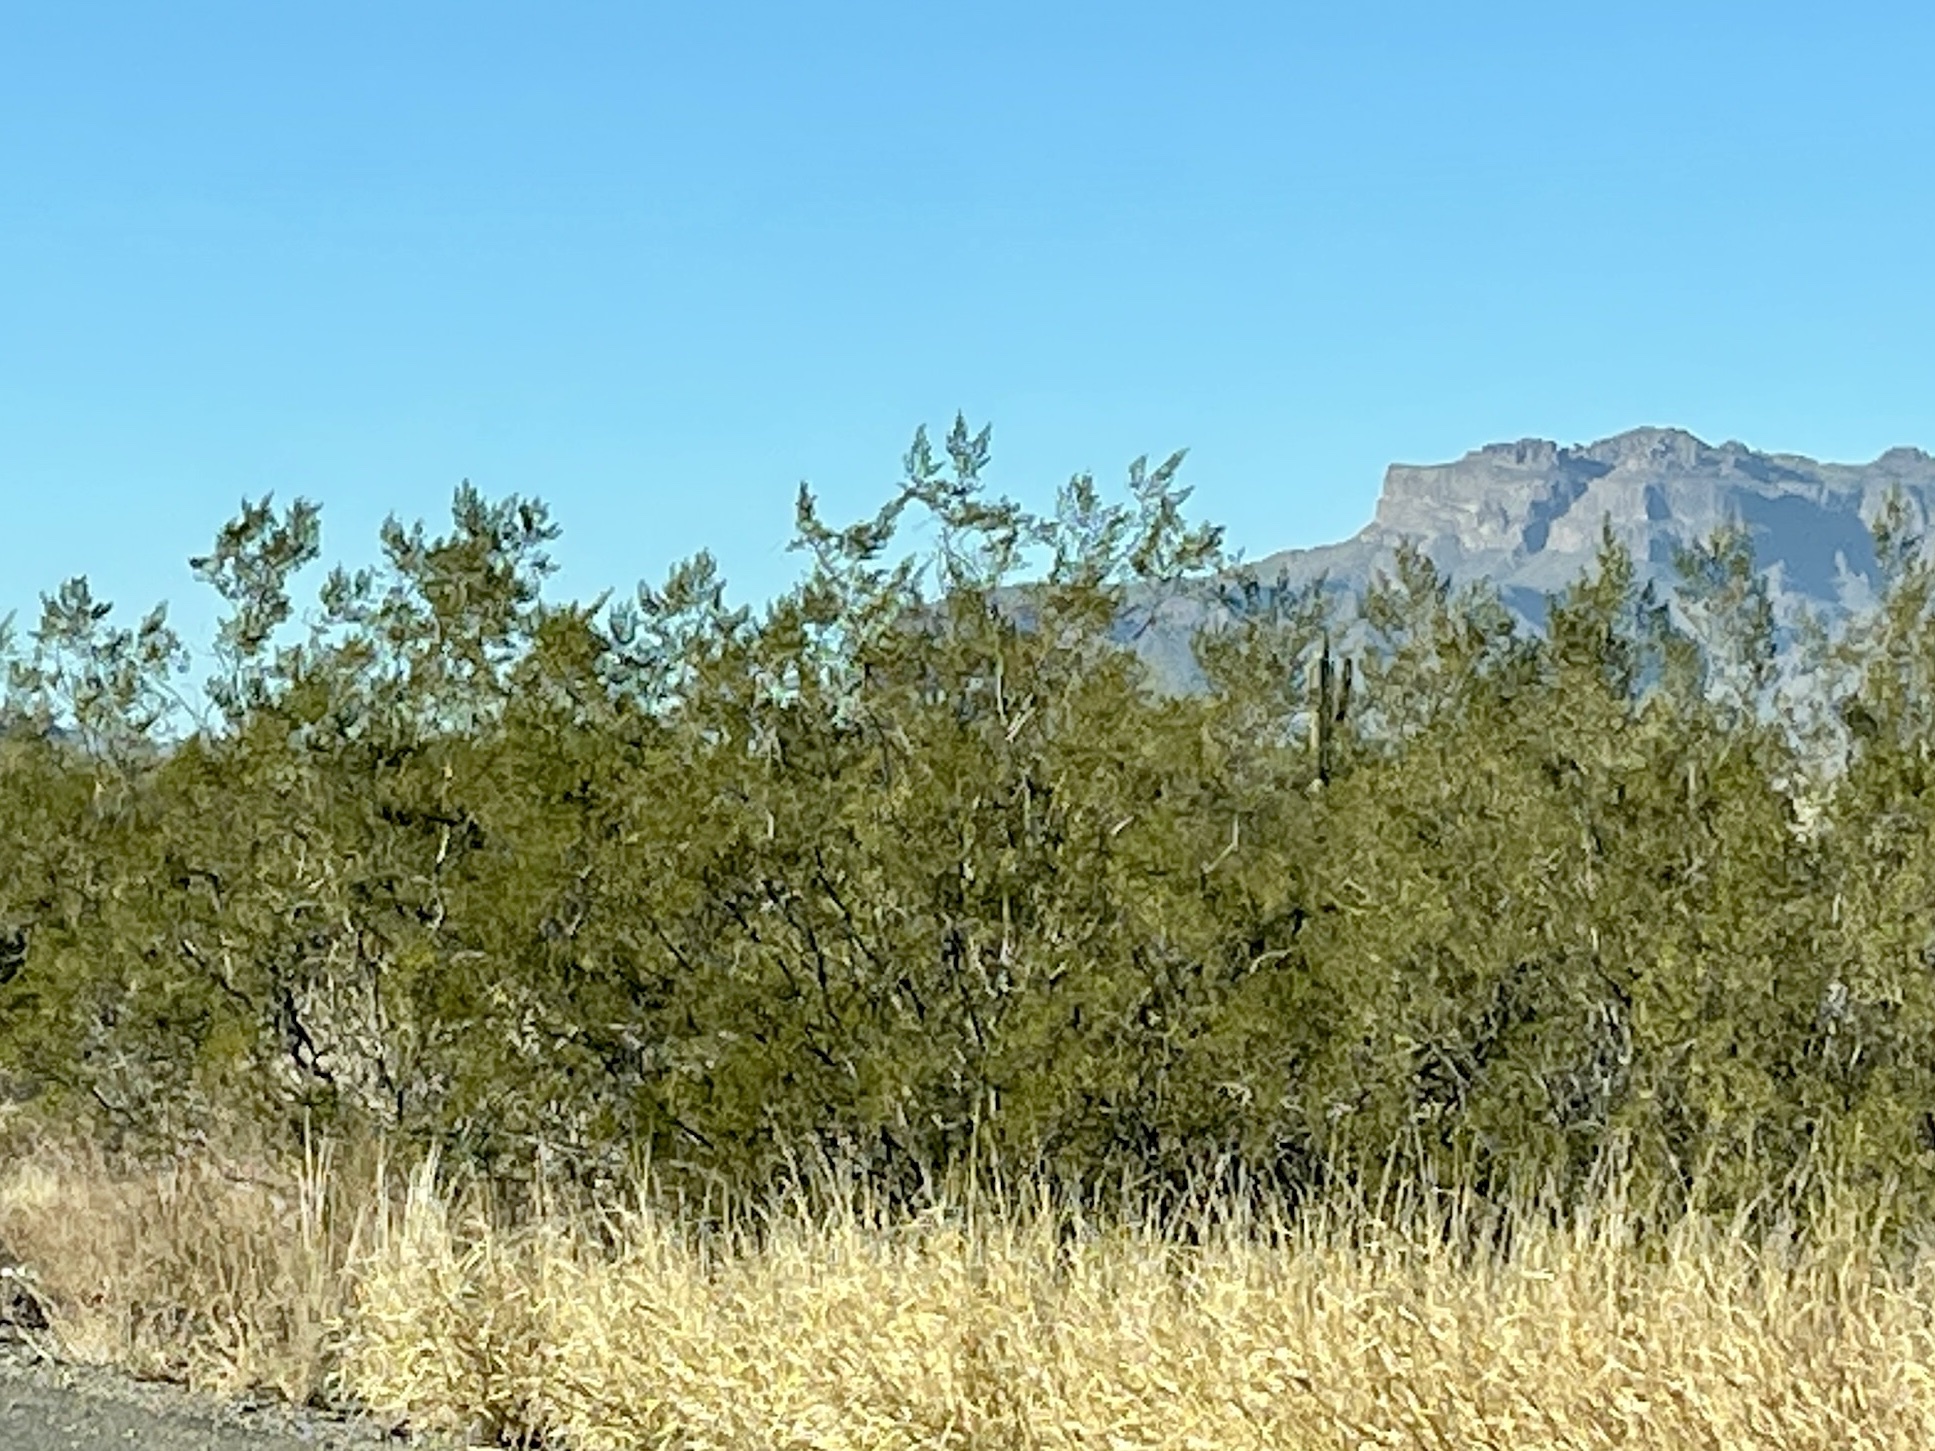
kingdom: Plantae
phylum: Tracheophyta
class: Magnoliopsida
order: Zygophyllales
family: Zygophyllaceae
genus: Larrea
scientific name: Larrea tridentata
